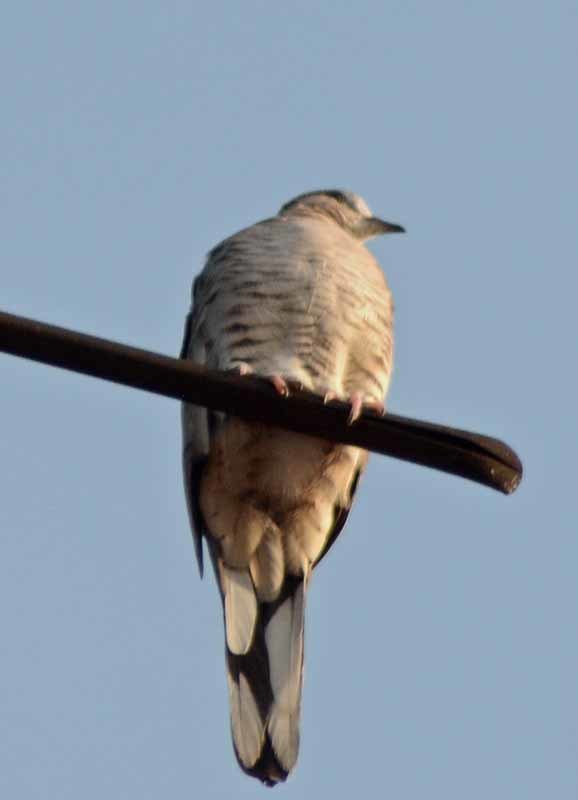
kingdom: Animalia
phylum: Chordata
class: Aves
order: Columbiformes
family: Columbidae
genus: Columbina
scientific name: Columbina inca
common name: Inca dove
